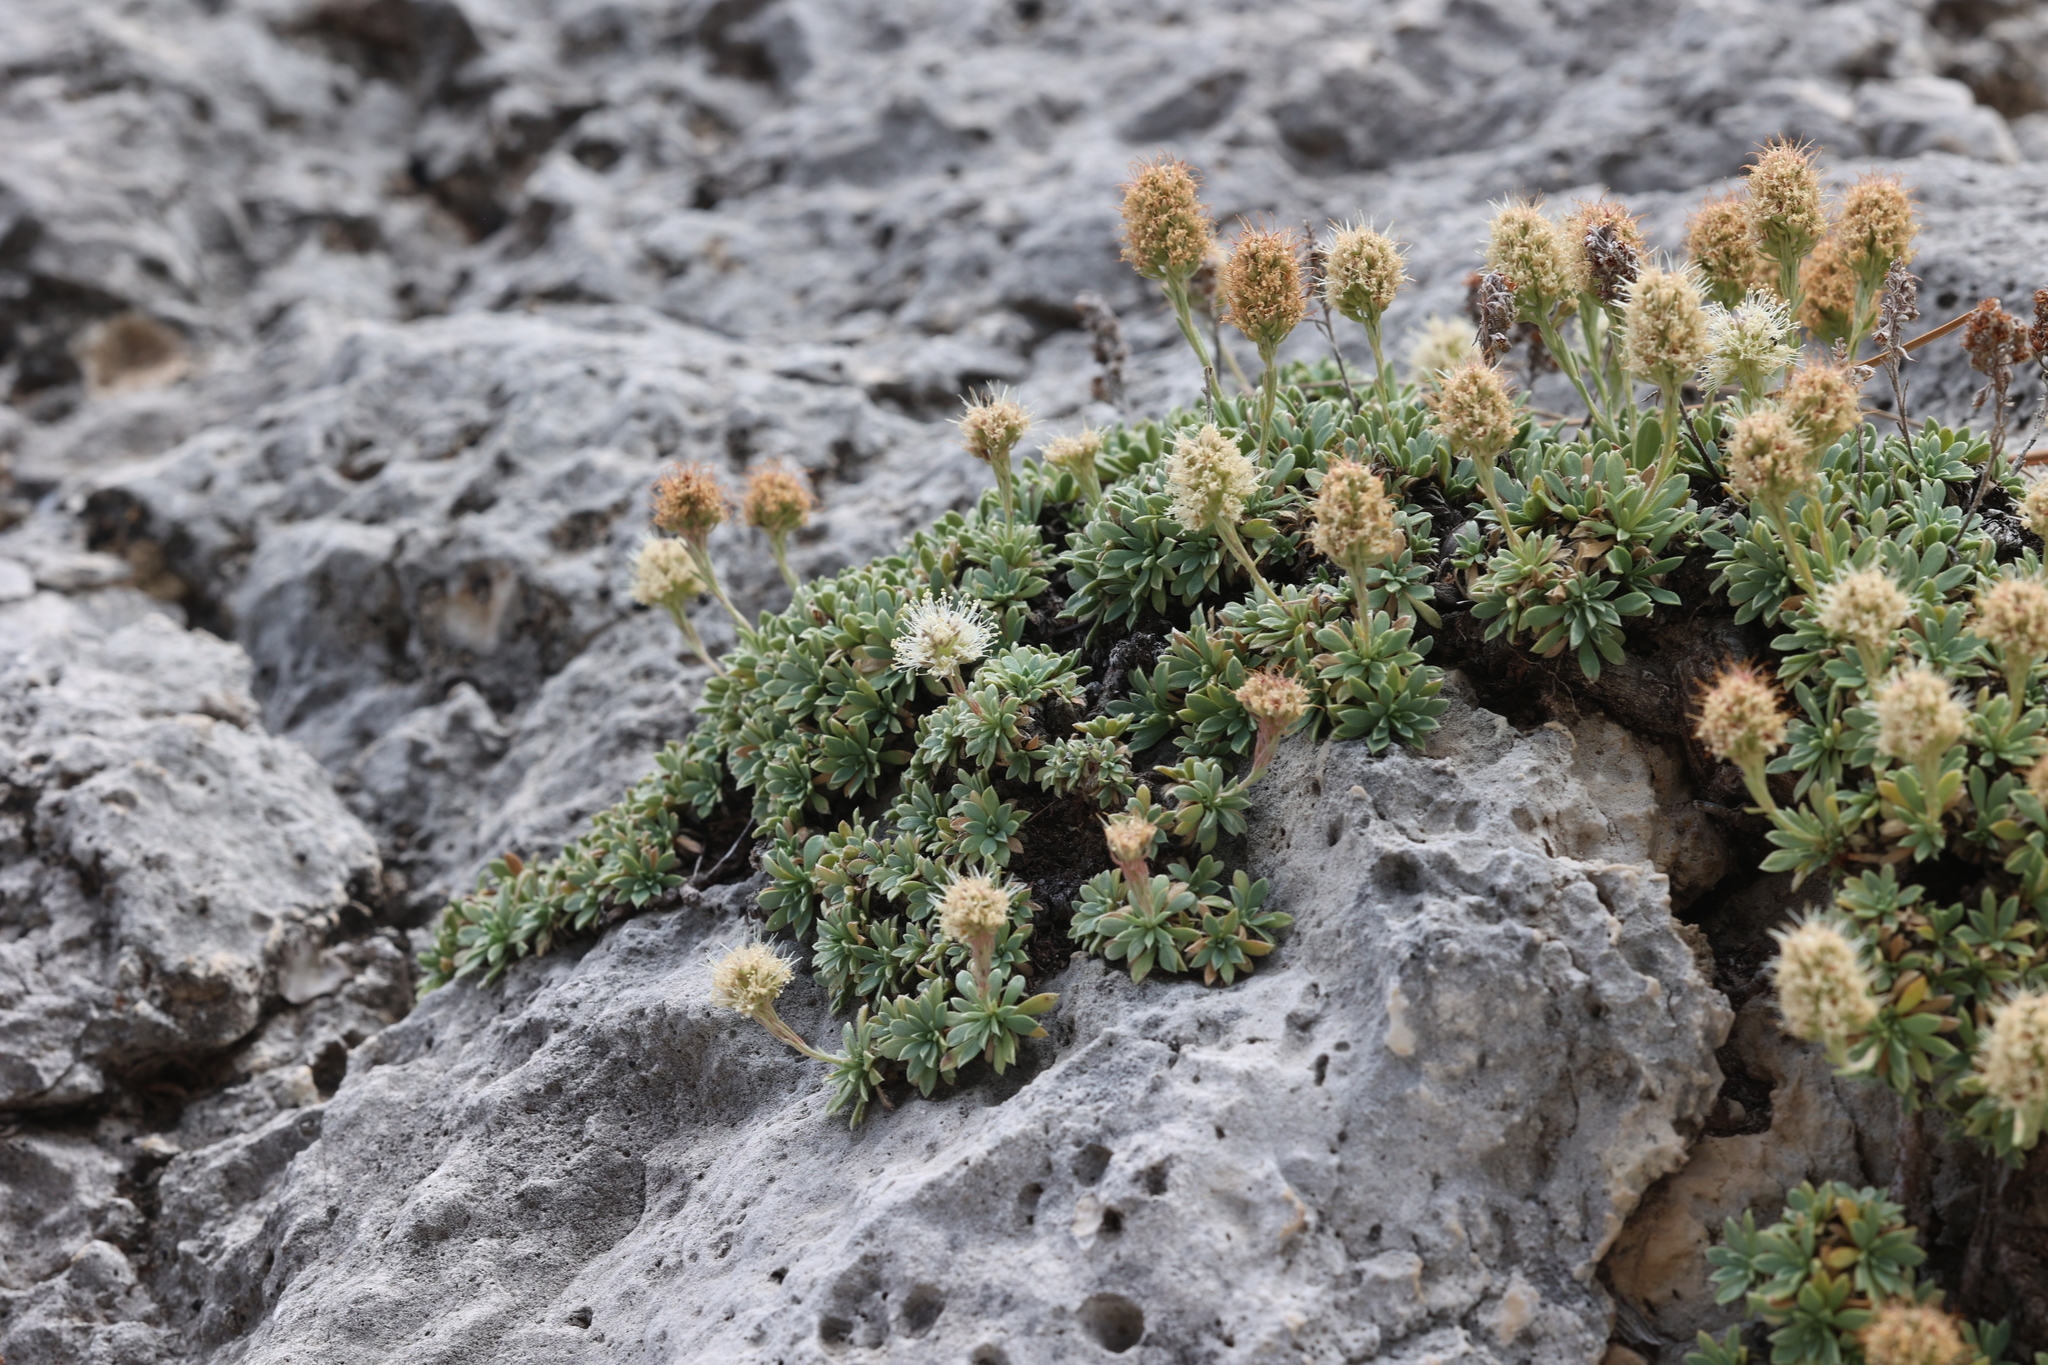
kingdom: Plantae
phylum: Tracheophyta
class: Magnoliopsida
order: Rosales
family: Rosaceae
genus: Petrophytum
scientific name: Petrophytum caespitosum
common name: Mat rockspirea
